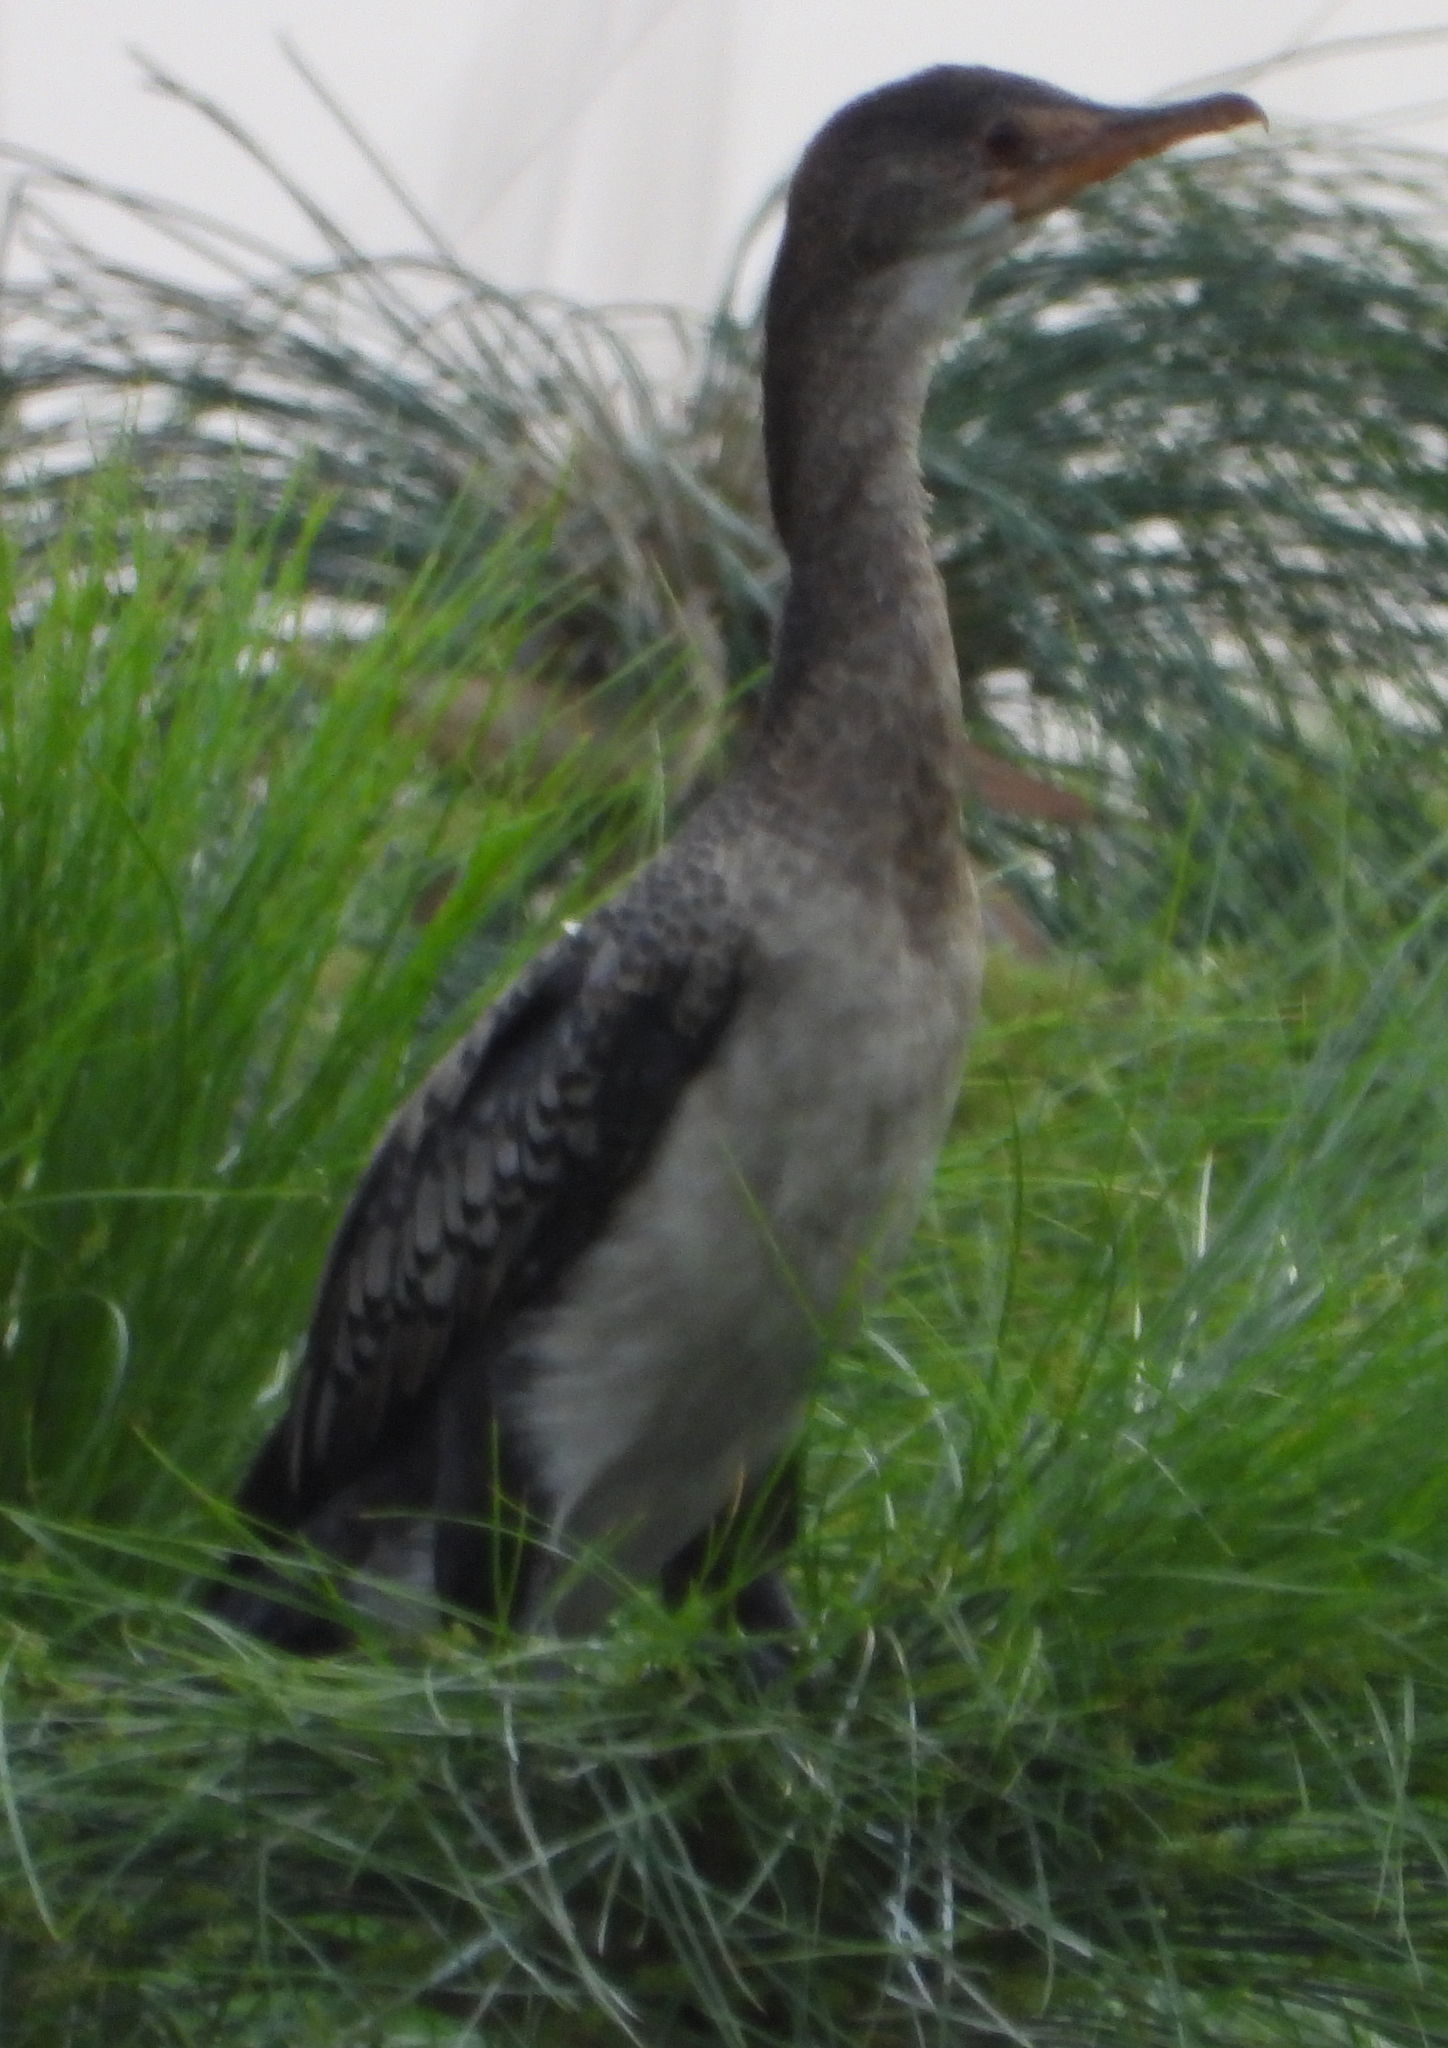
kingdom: Animalia
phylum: Chordata
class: Aves
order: Suliformes
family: Phalacrocoracidae
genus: Microcarbo
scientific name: Microcarbo africanus
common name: Long-tailed cormorant
